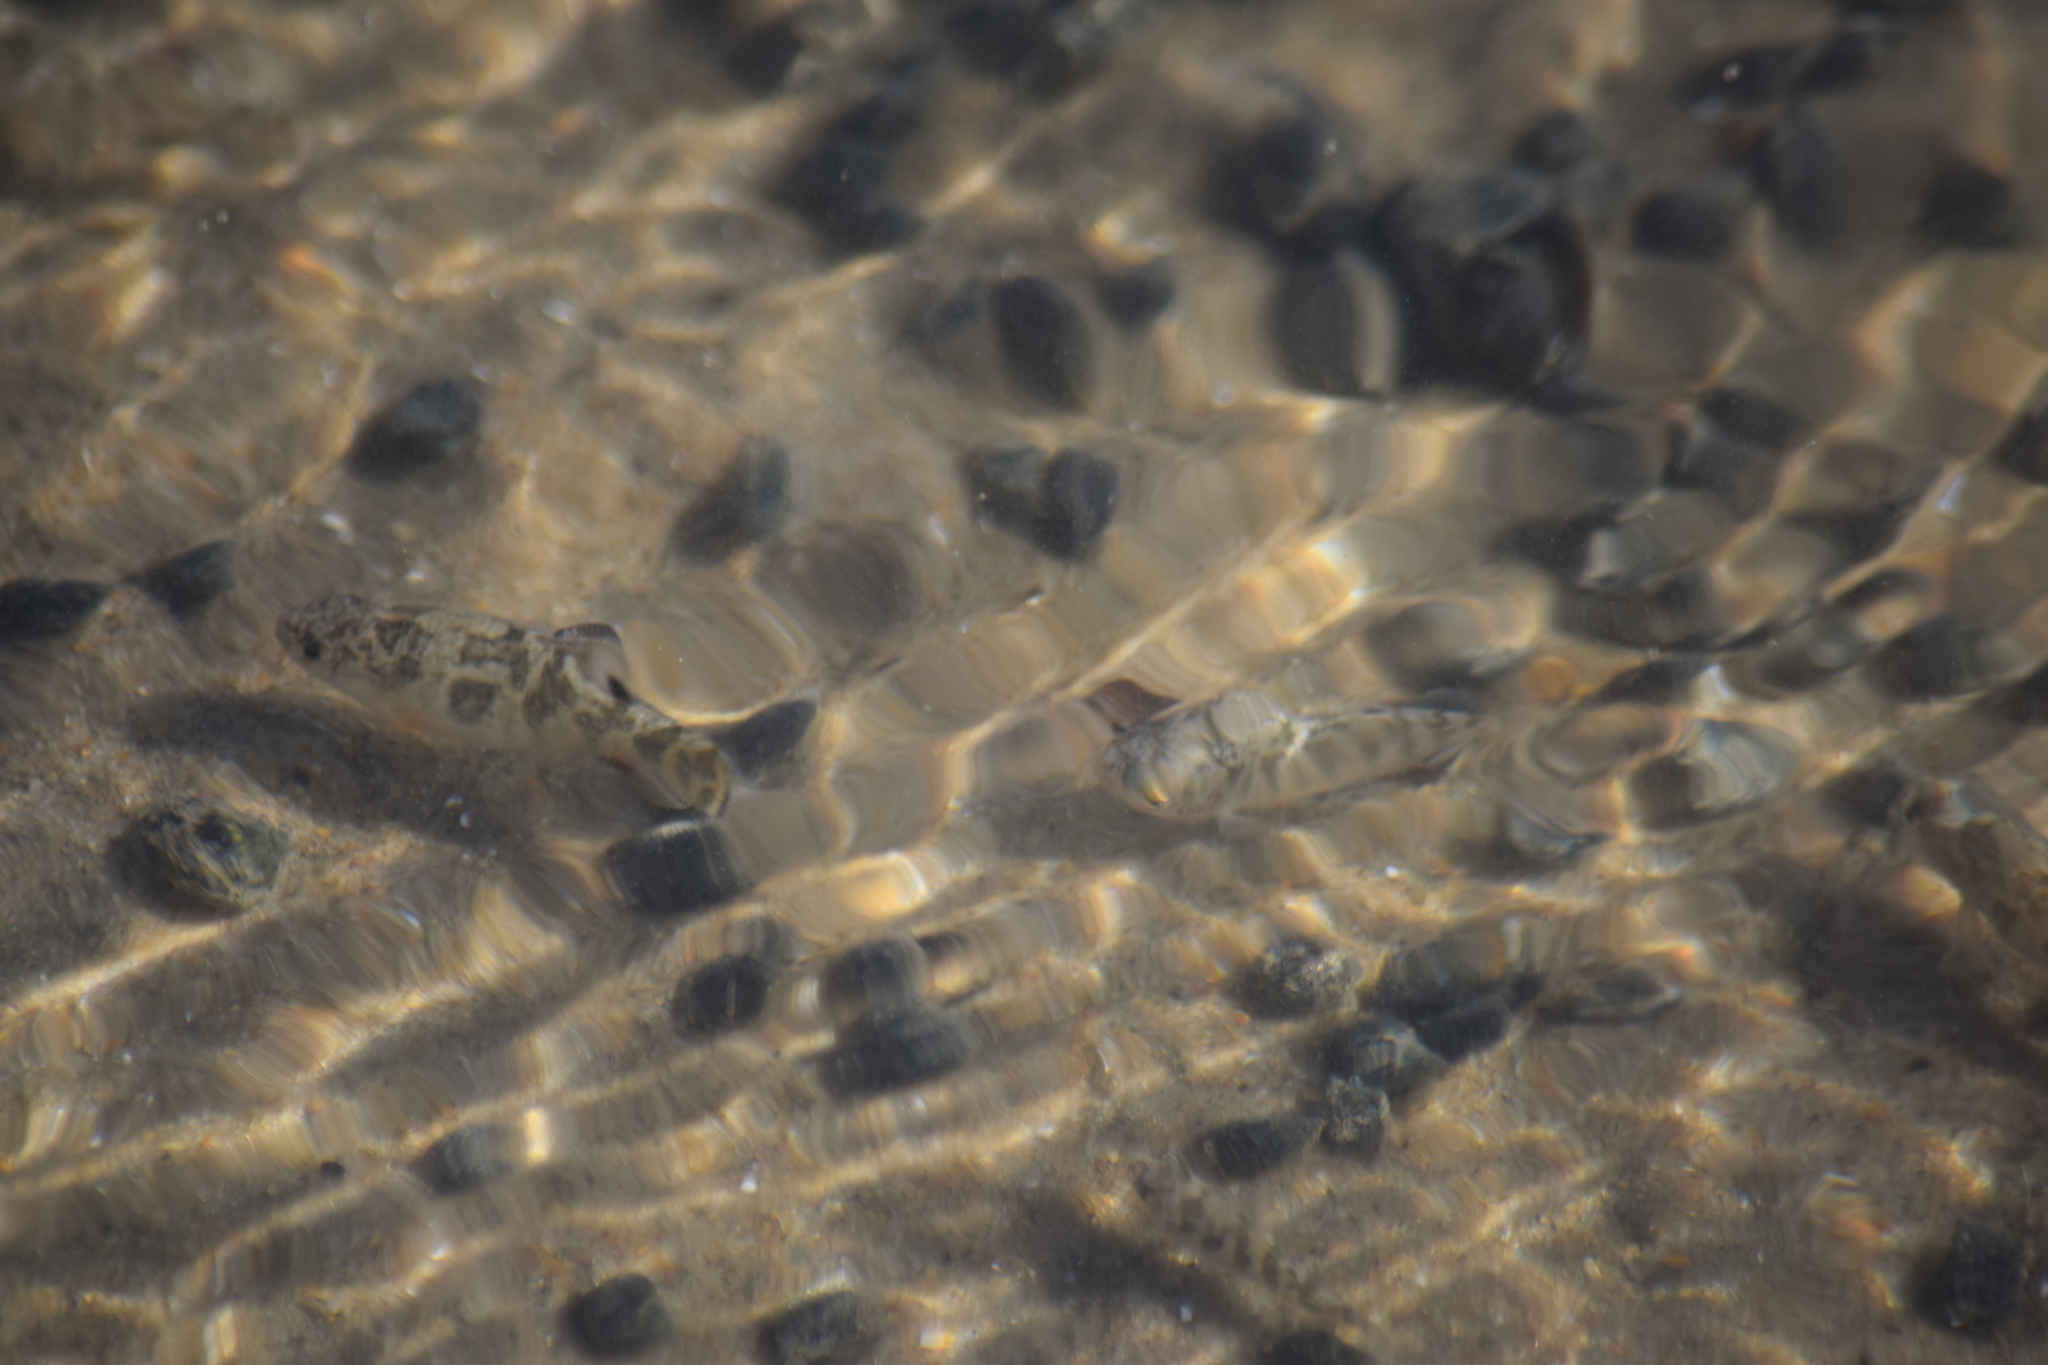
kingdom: Animalia
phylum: Chordata
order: Cyprinodontiformes
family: Cyprinodontidae
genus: Cyprinodon
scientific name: Cyprinodon variegatus
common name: Sheepshead minnow
